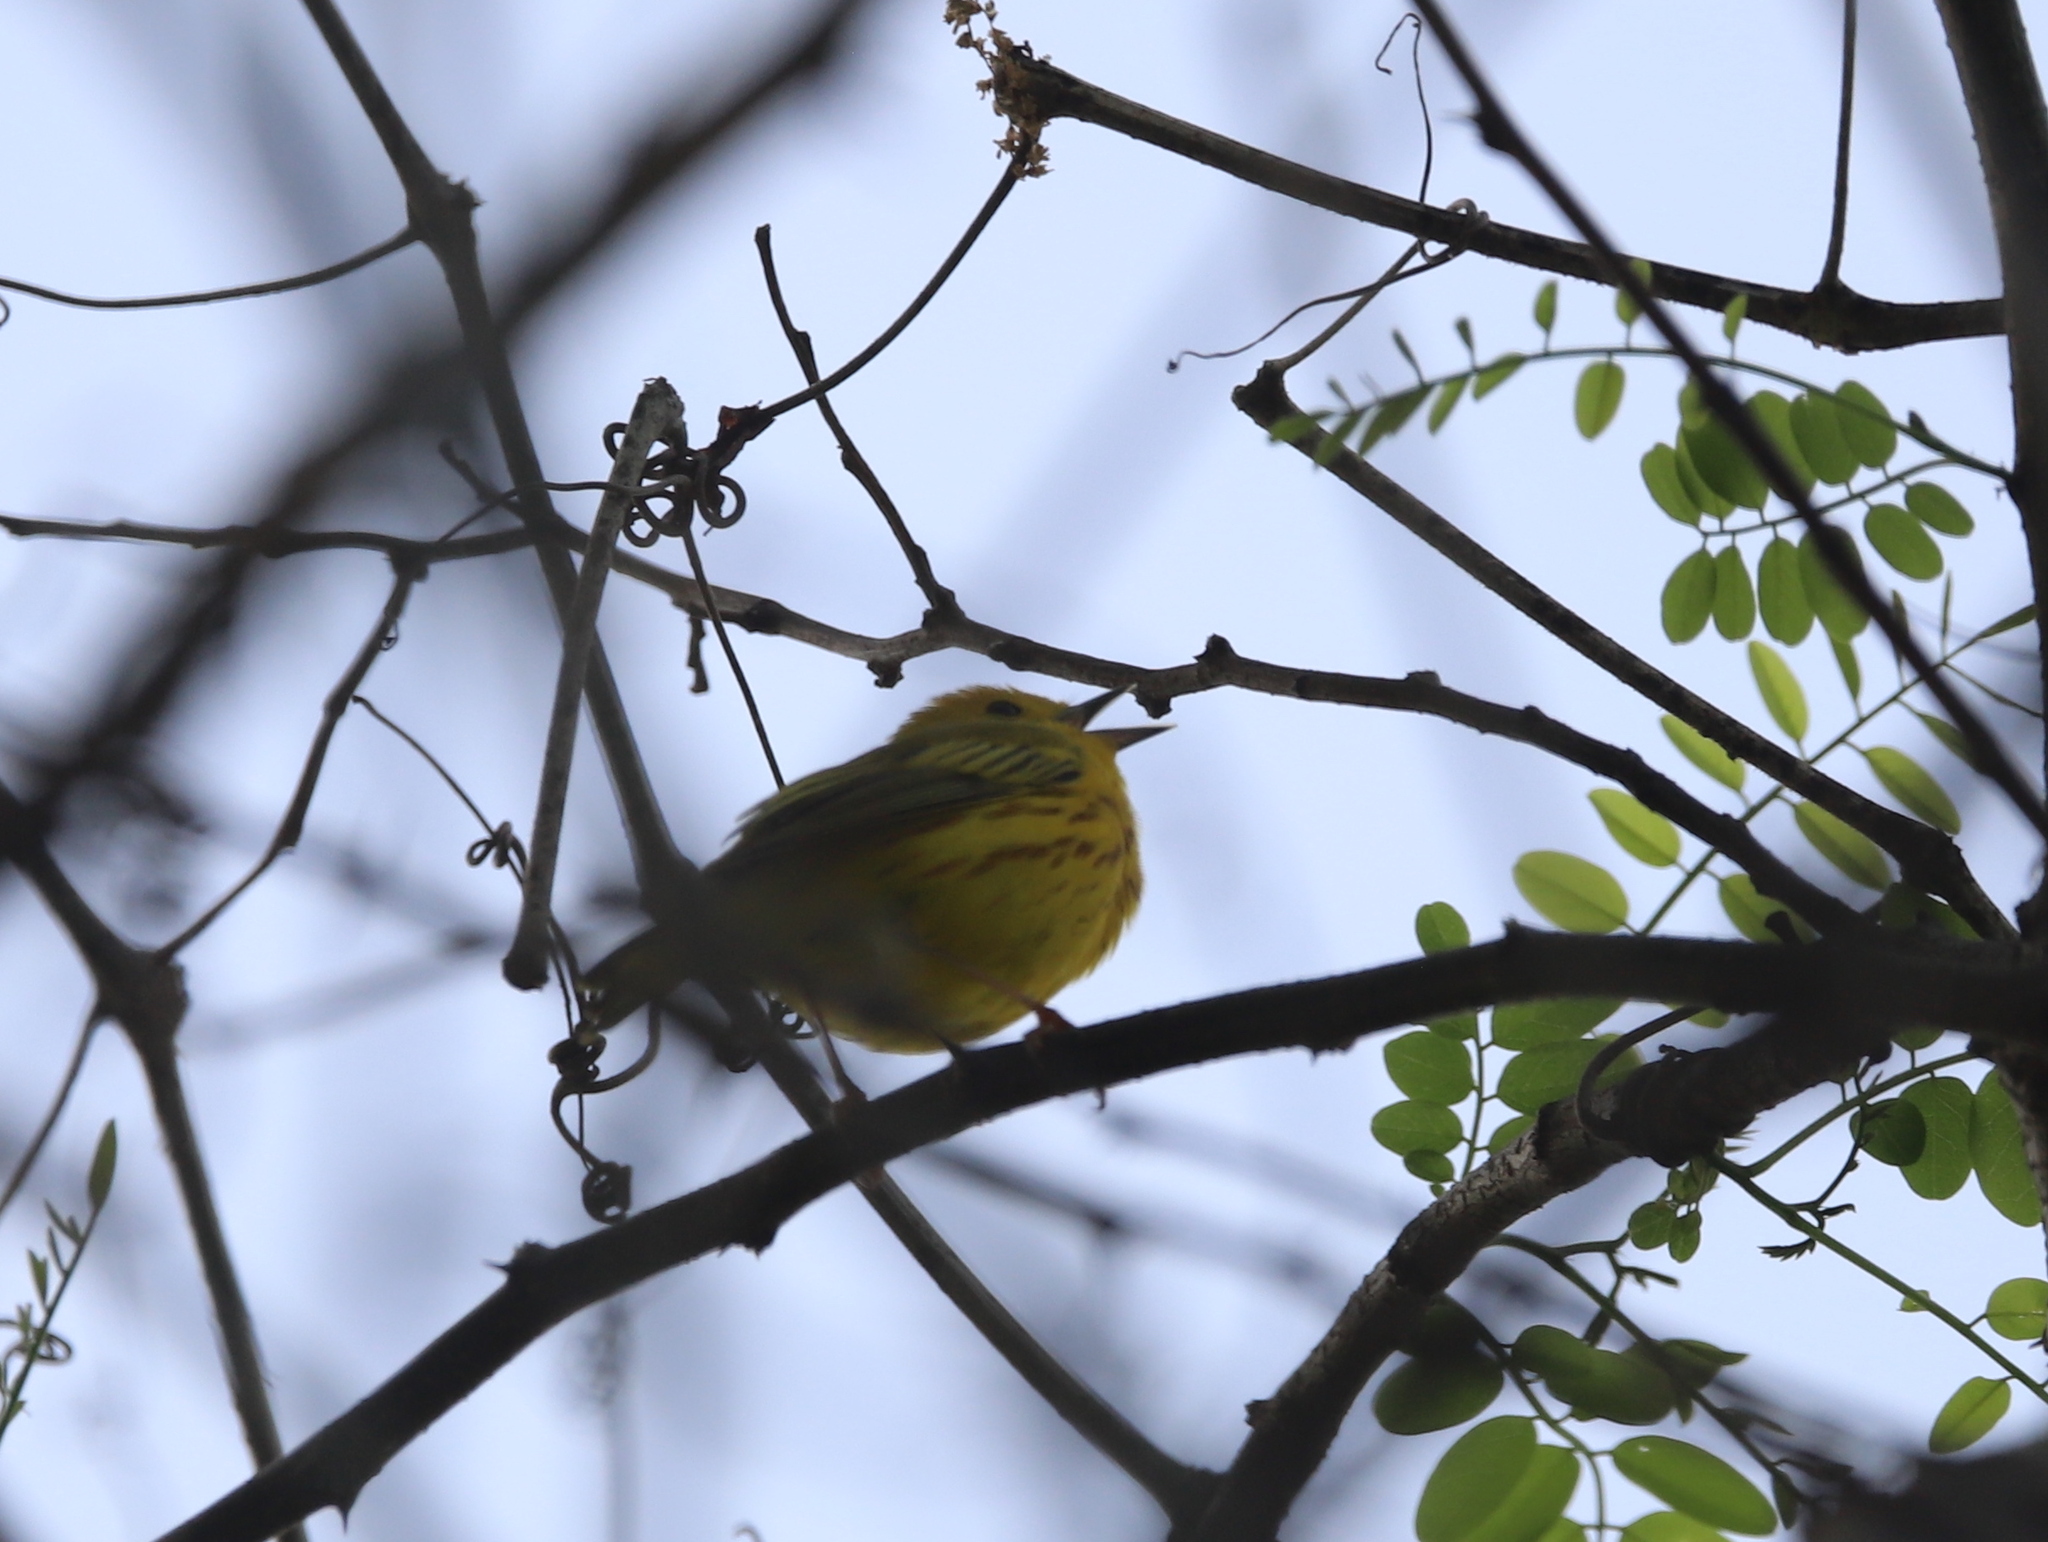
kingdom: Animalia
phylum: Chordata
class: Aves
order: Passeriformes
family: Parulidae
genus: Setophaga
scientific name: Setophaga petechia
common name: Yellow warbler
